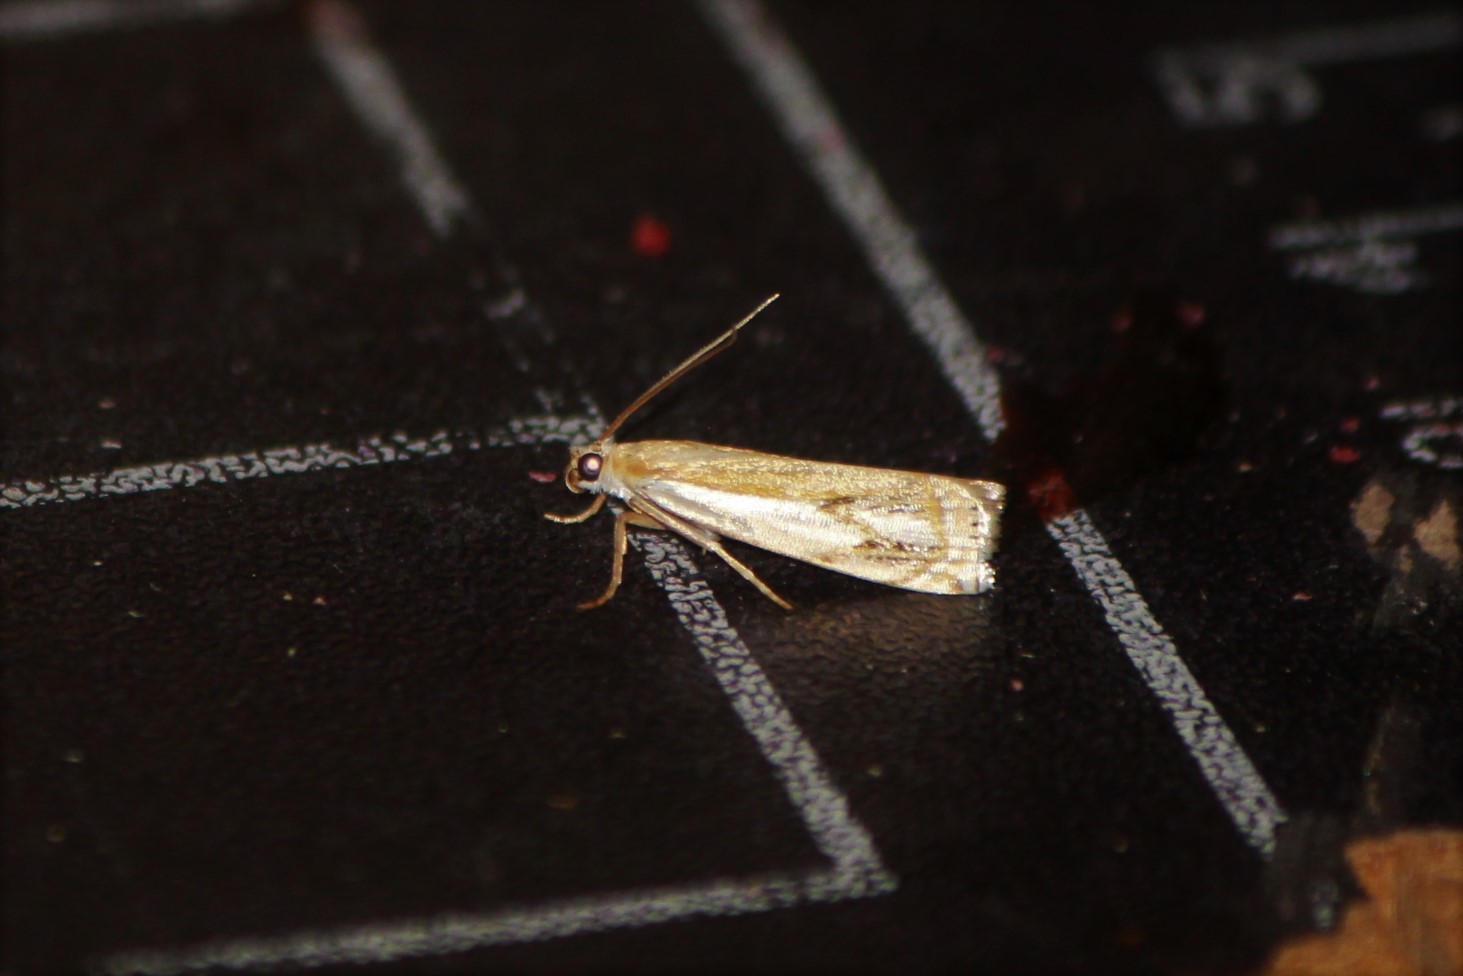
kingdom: Animalia
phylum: Arthropoda
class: Insecta
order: Lepidoptera
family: Crambidae
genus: Crambus
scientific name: Crambus agitatellus
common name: Double-banded grass-veneer
